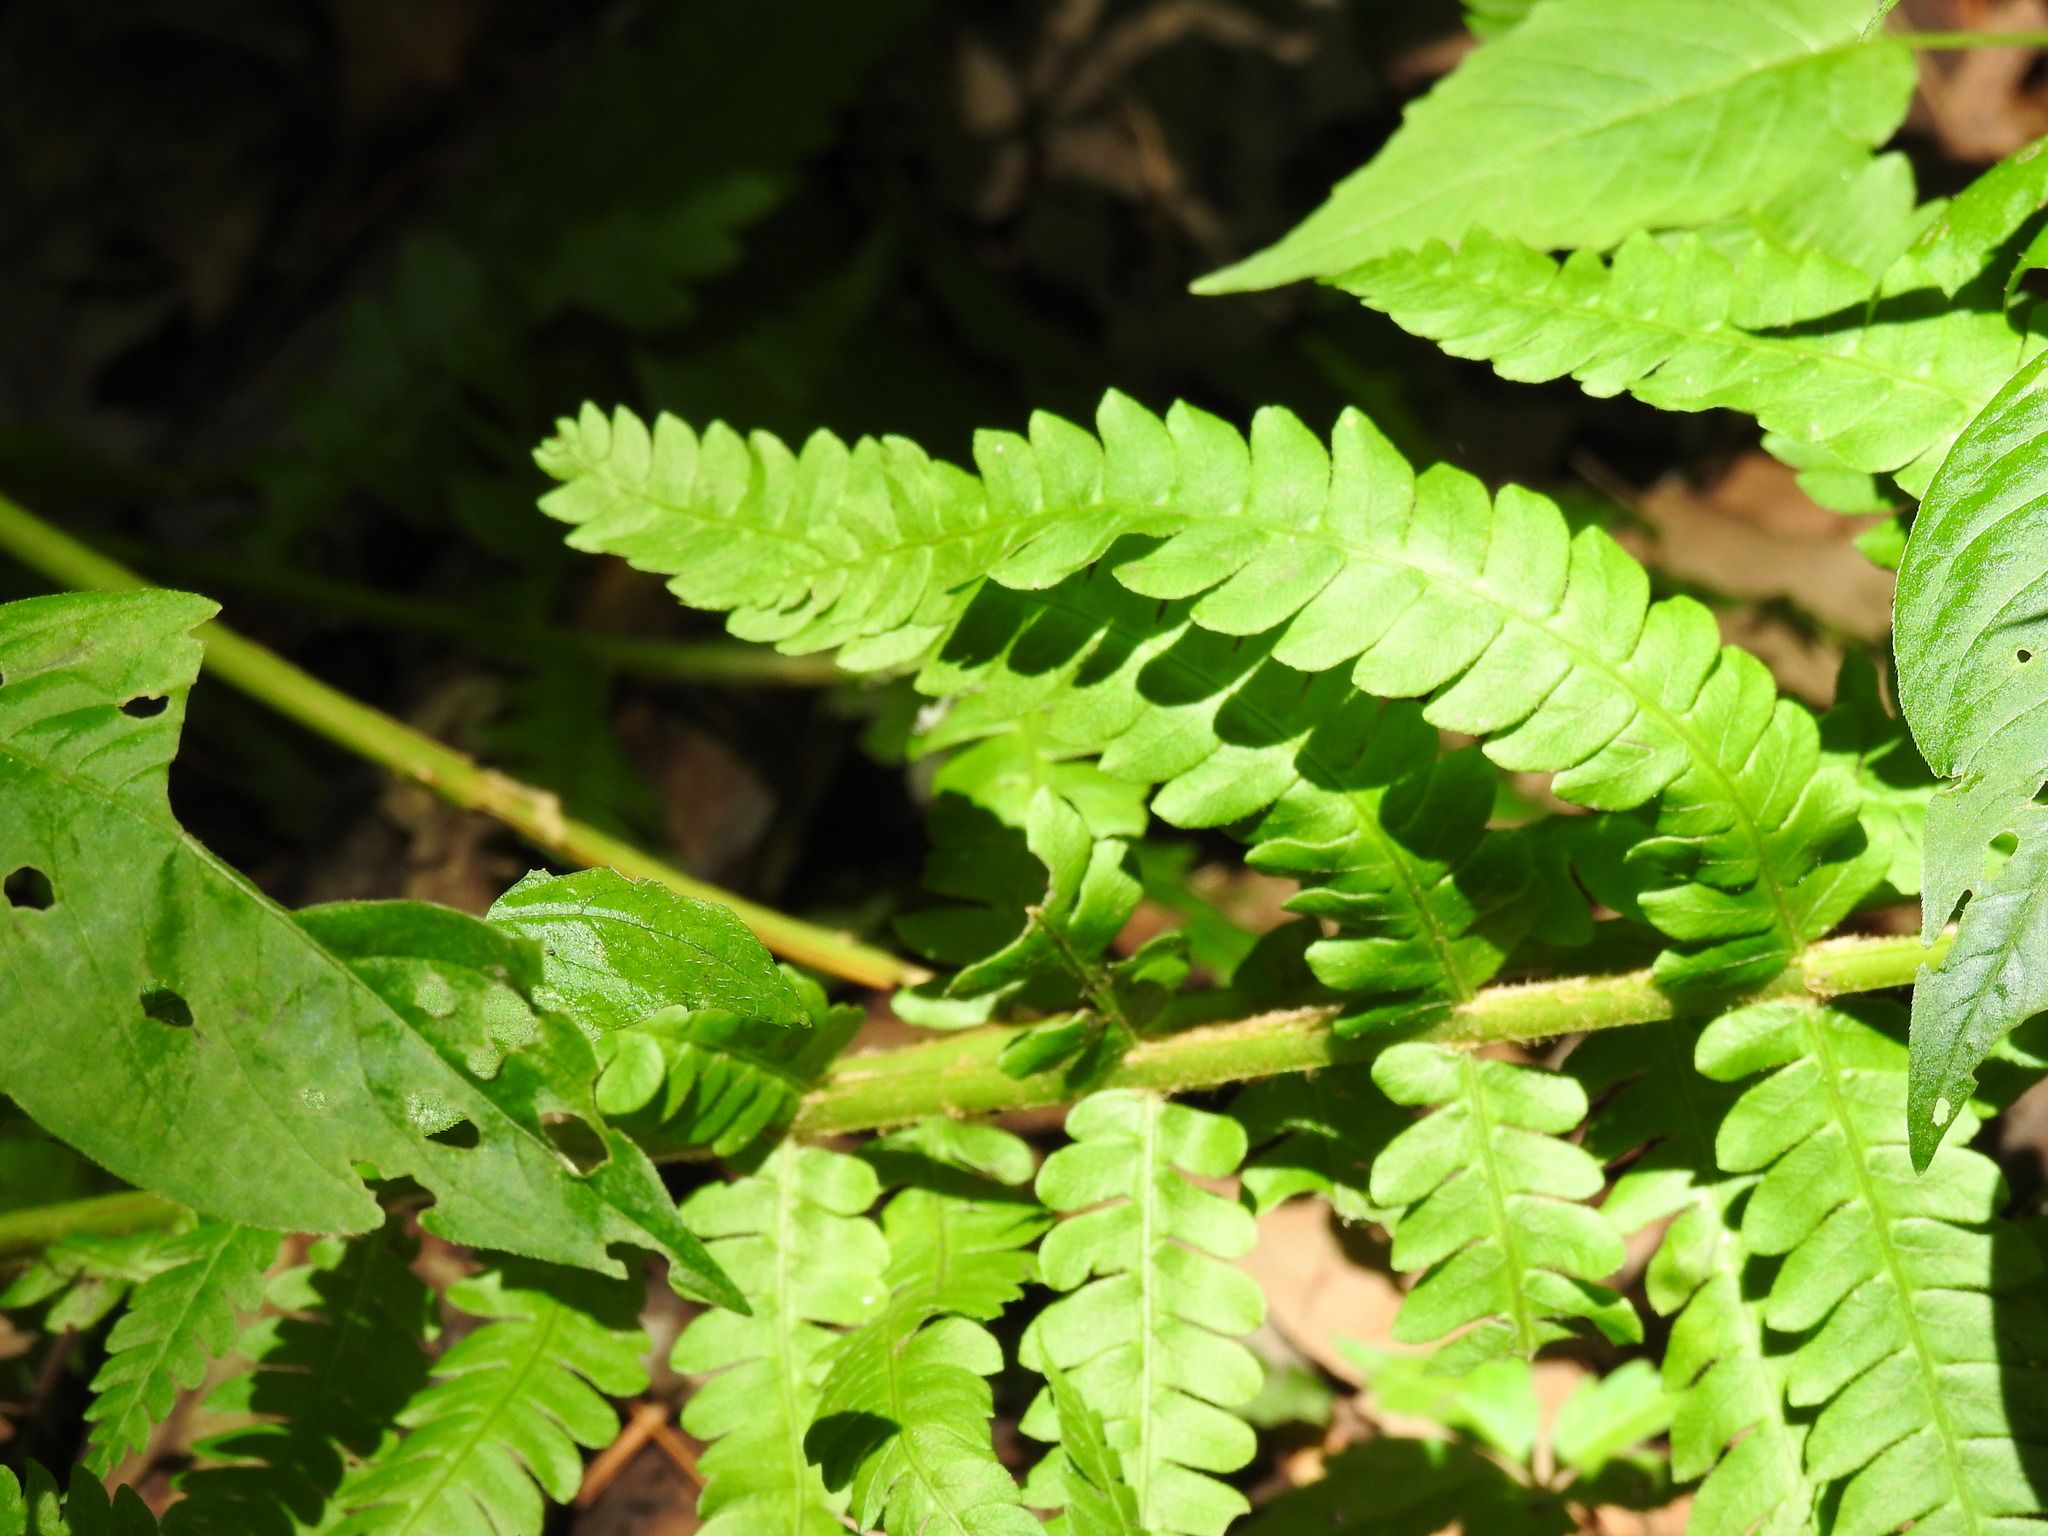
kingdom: Plantae
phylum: Tracheophyta
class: Polypodiopsida
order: Osmundales
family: Osmundaceae
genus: Osmundastrum
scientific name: Osmundastrum cinnamomeum
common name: Cinnamon fern
